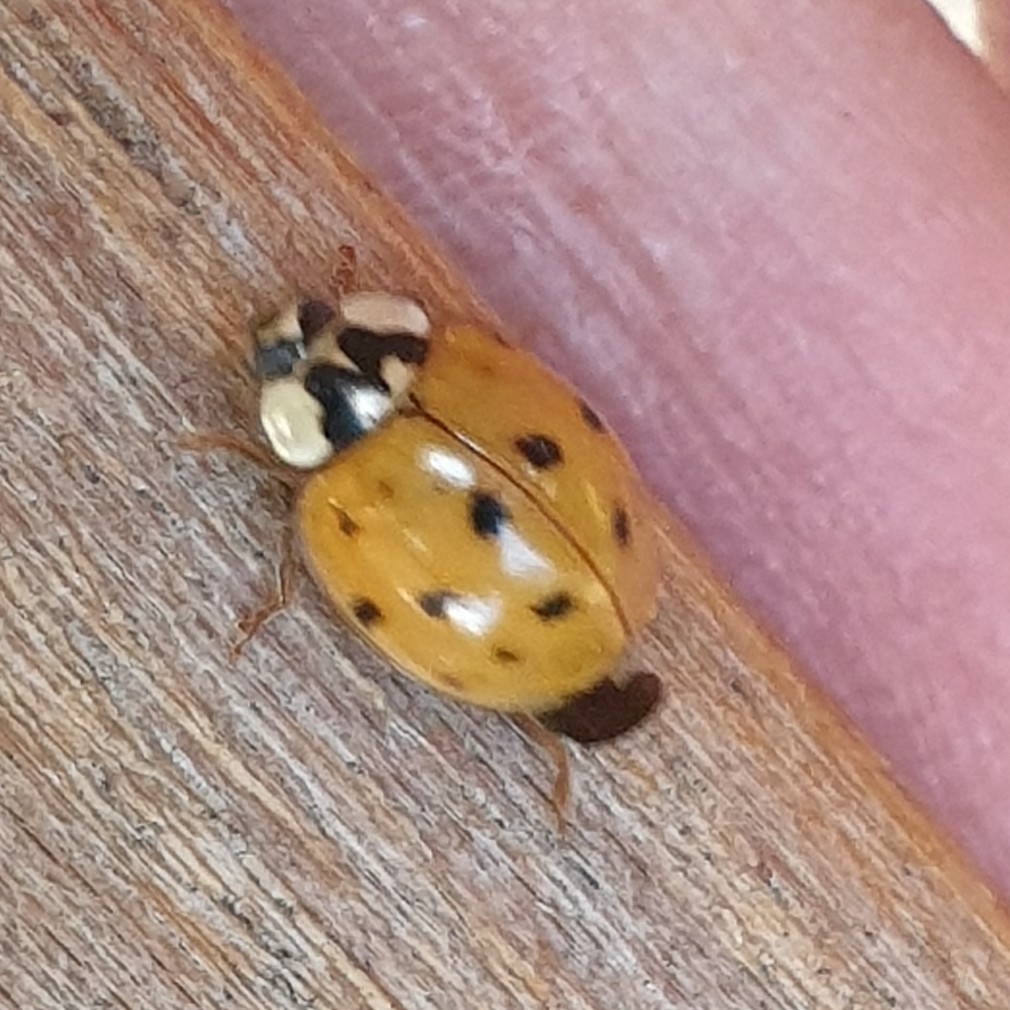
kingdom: Animalia
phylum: Arthropoda
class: Insecta
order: Coleoptera
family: Coccinellidae
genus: Harmonia
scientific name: Harmonia axyridis
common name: Harlequin ladybird
